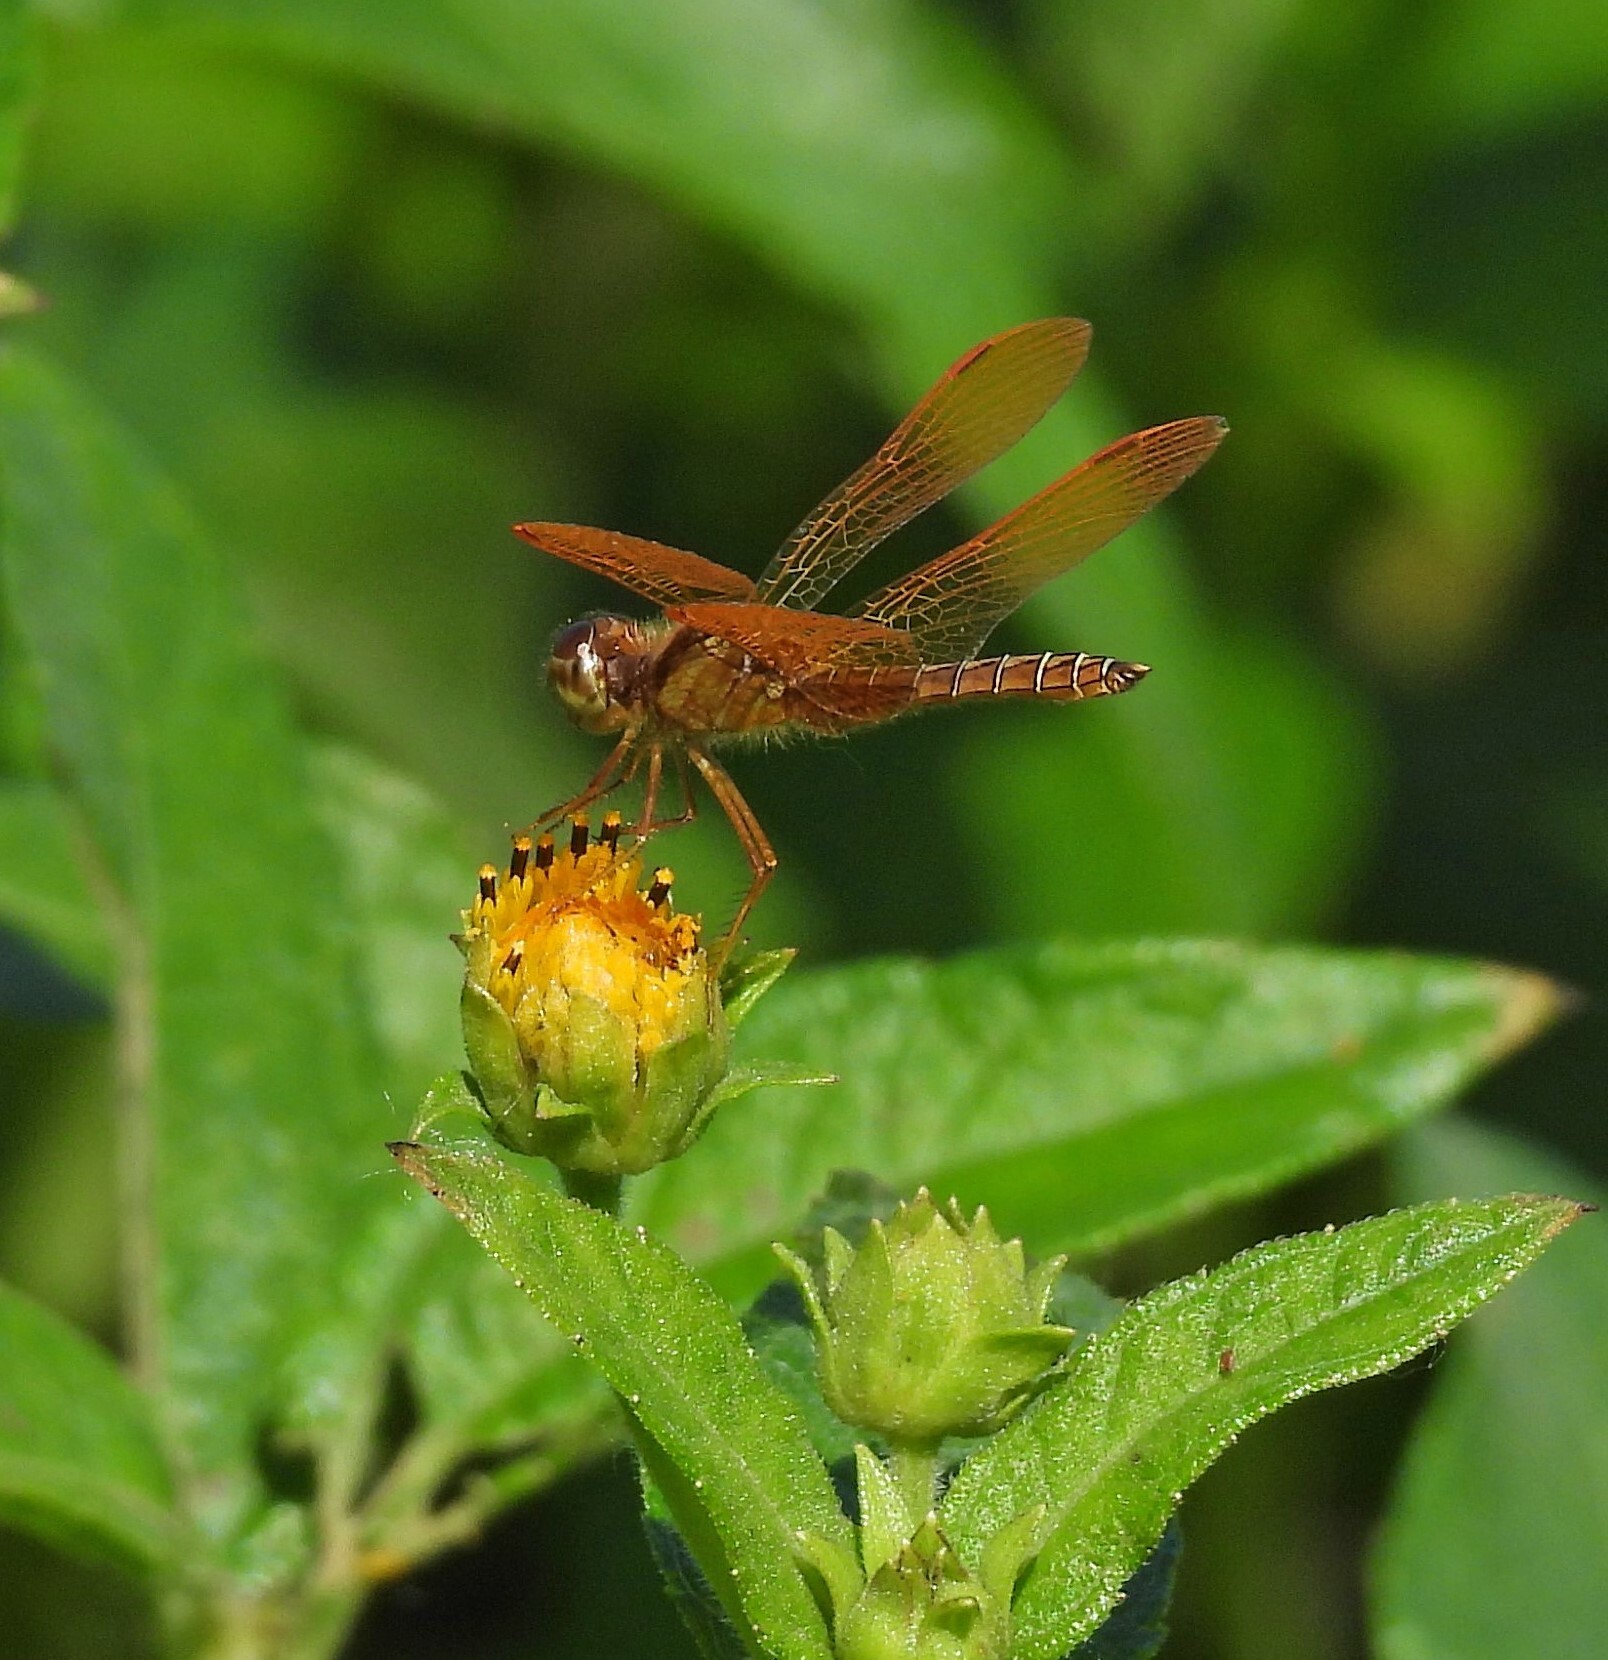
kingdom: Animalia
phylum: Arthropoda
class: Insecta
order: Odonata
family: Libellulidae
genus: Perithemis
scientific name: Perithemis tenera
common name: Eastern amberwing
